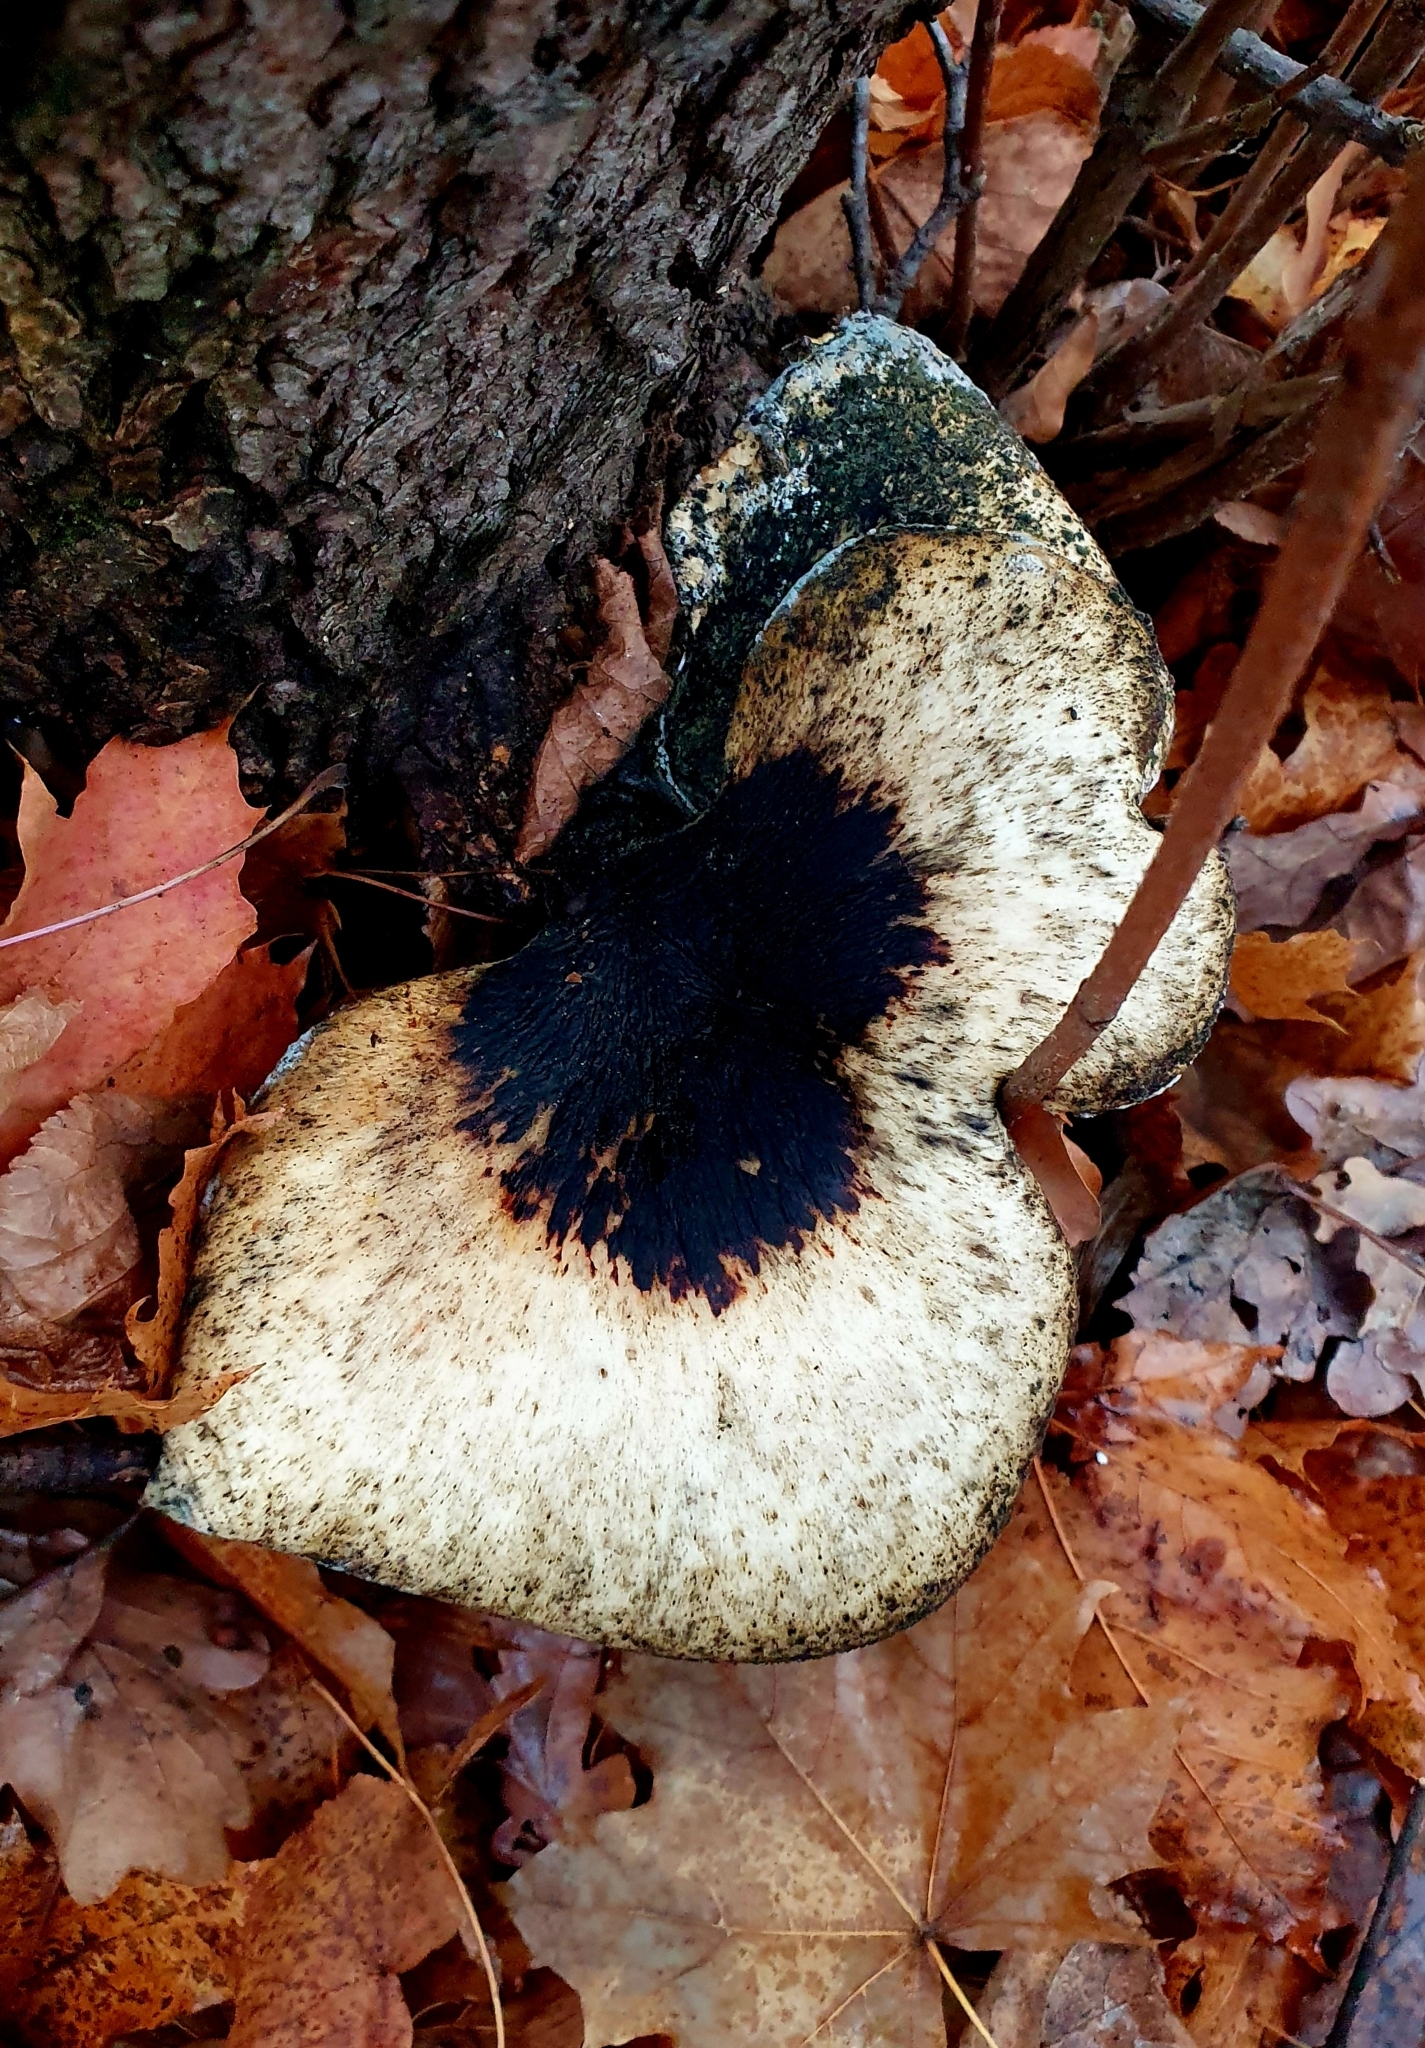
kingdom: Fungi
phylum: Basidiomycota
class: Agaricomycetes
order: Polyporales
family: Polyporaceae
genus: Cerioporus
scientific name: Cerioporus squamosus
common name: Dryad's saddle
